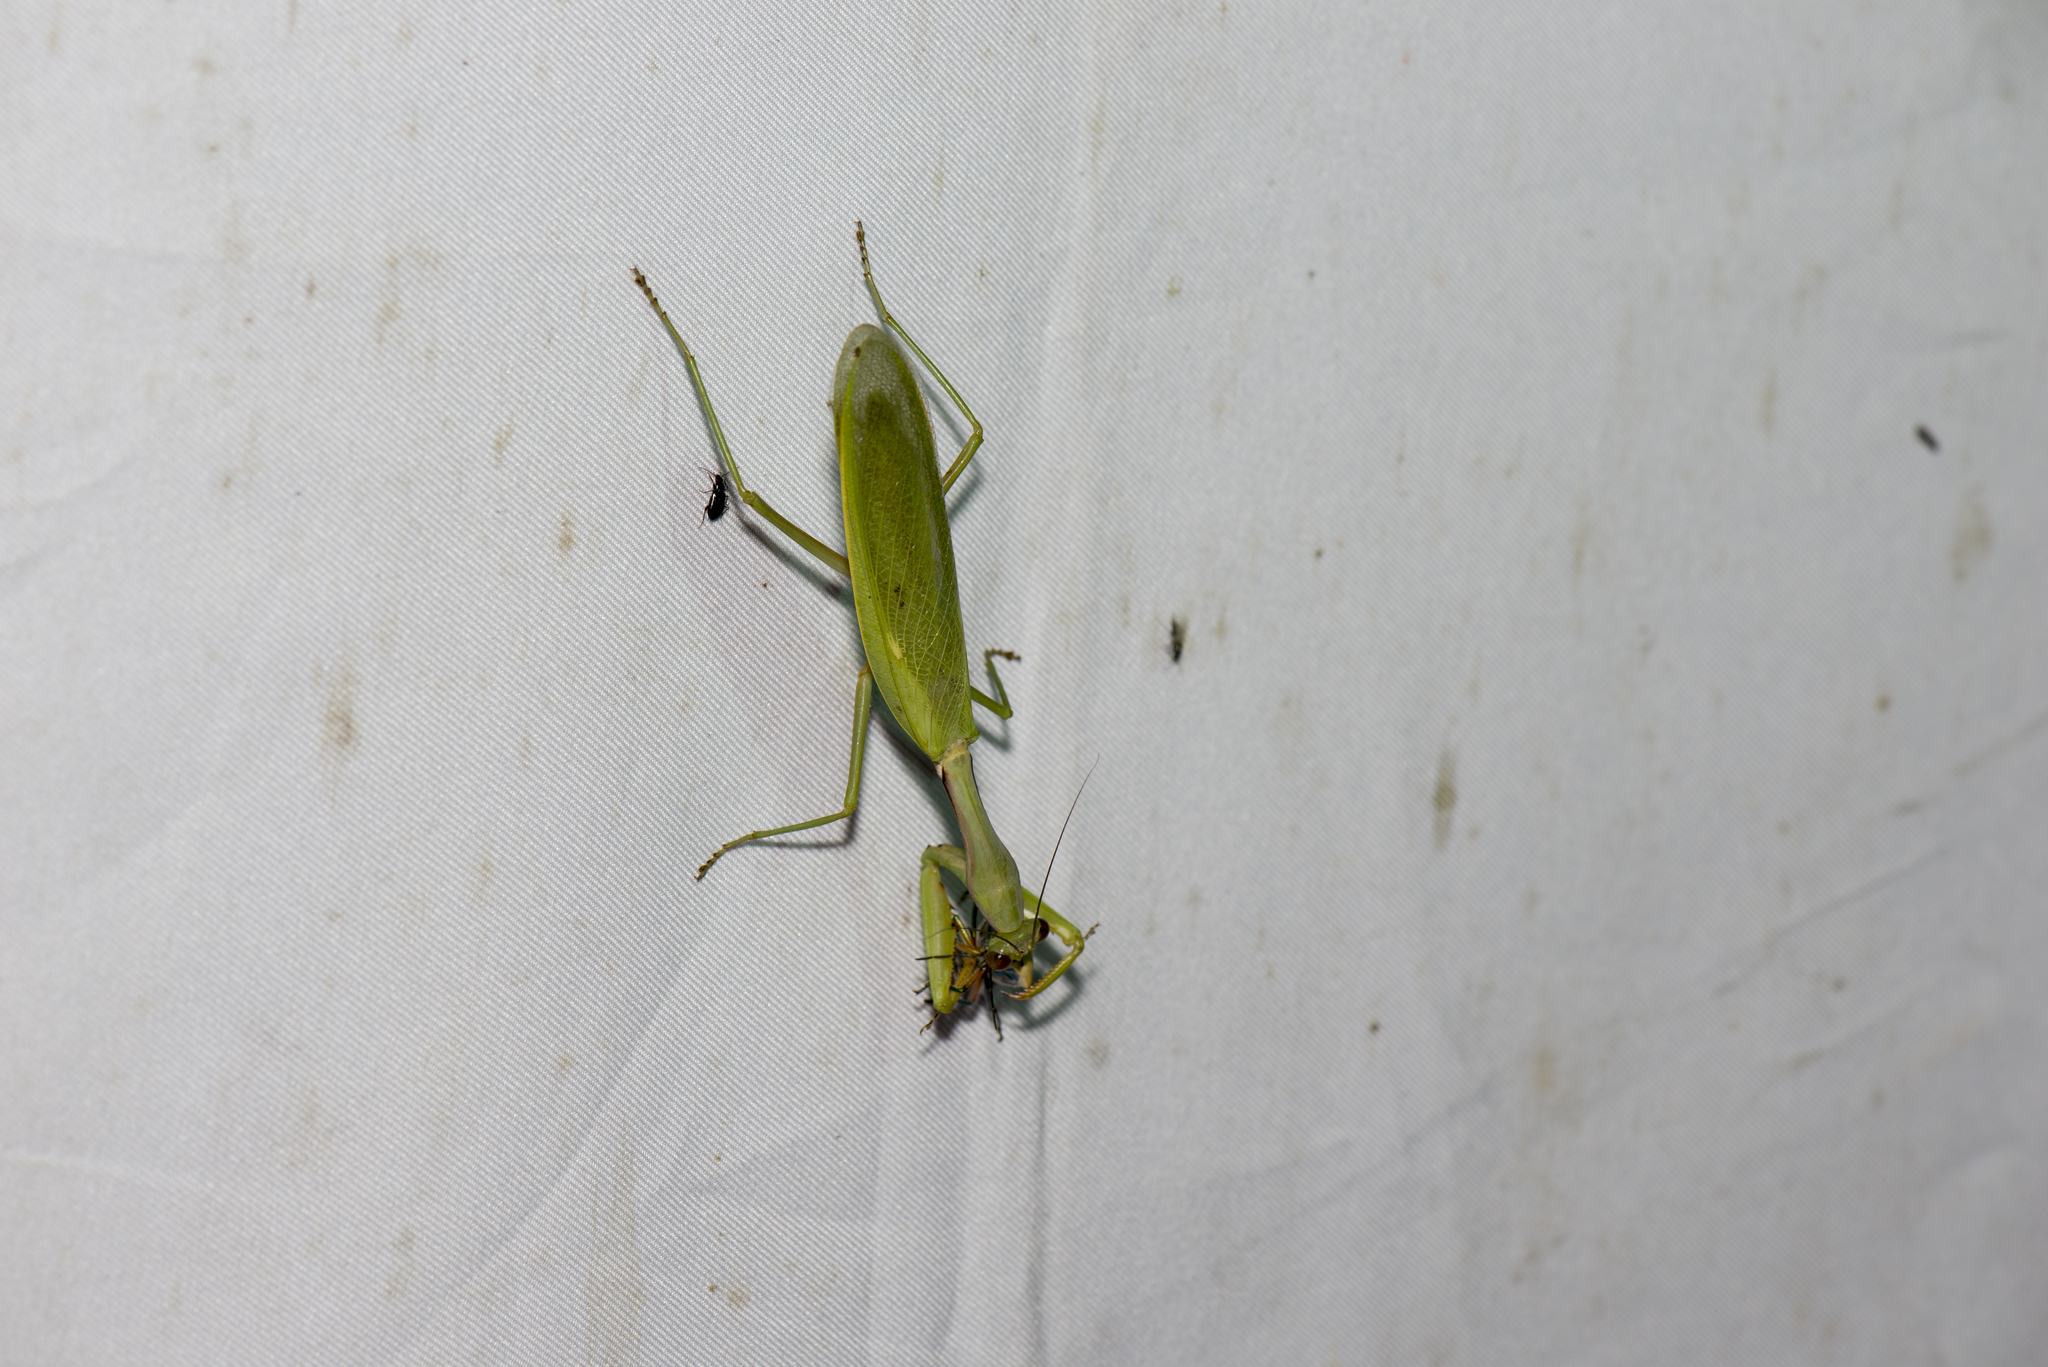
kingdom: Animalia
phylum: Arthropoda
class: Insecta
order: Mantodea
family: Mantidae
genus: Titanodula
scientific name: Titanodula formosana
